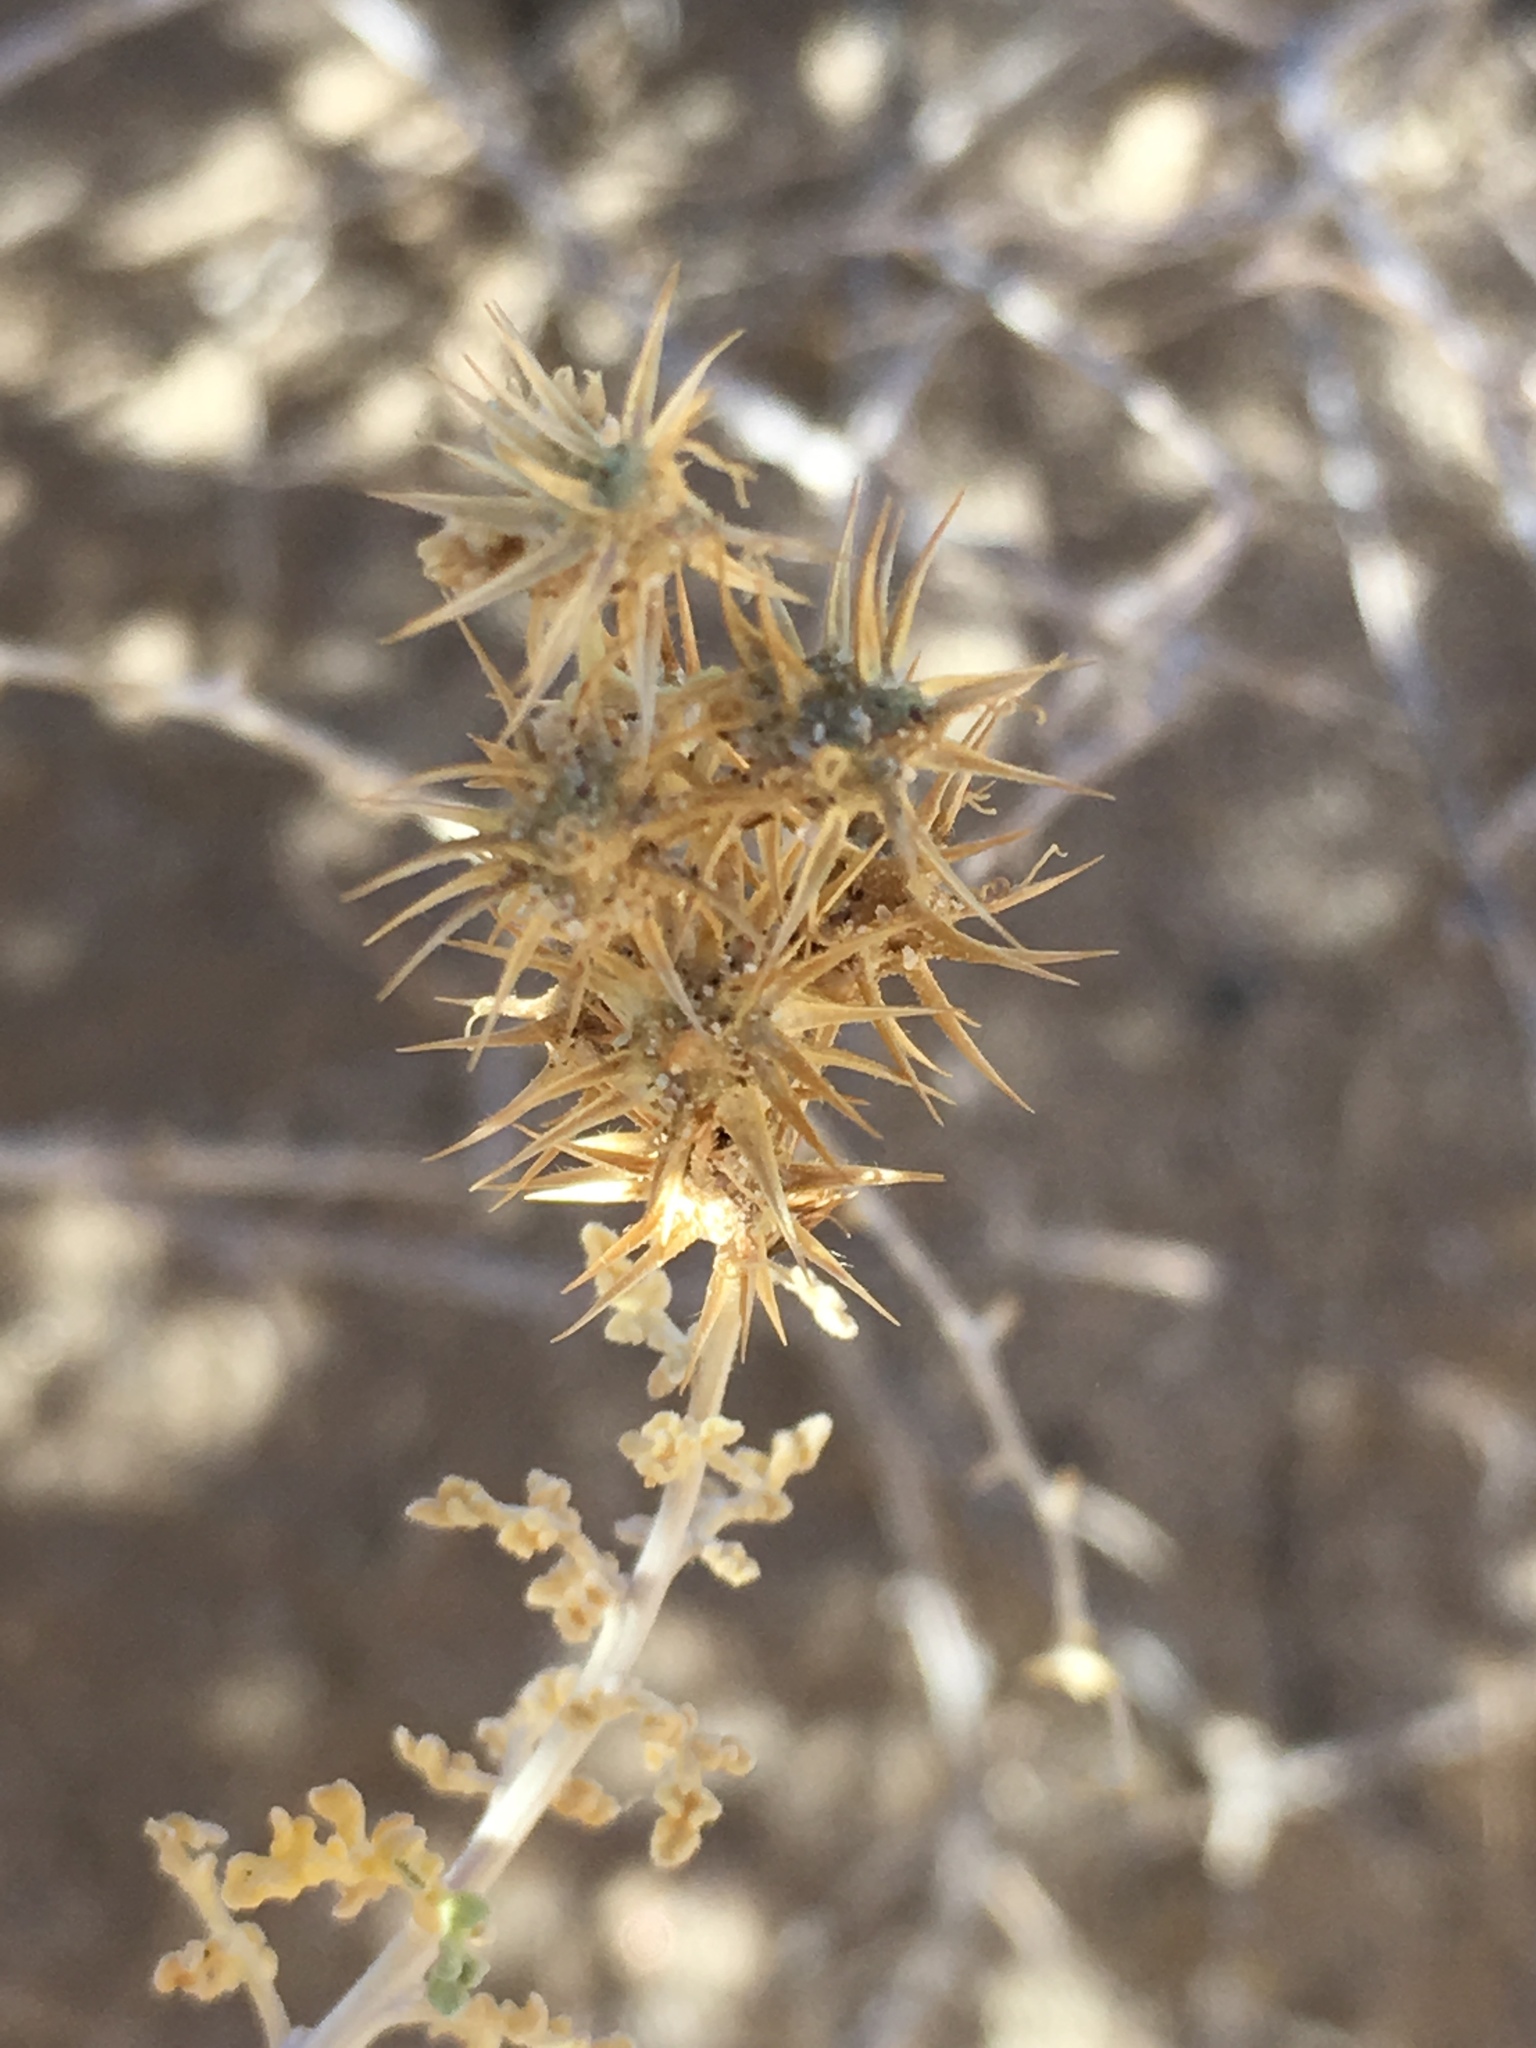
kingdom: Plantae
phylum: Tracheophyta
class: Magnoliopsida
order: Asterales
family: Asteraceae
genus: Ambrosia
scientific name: Ambrosia dumosa
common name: Bur-sage
